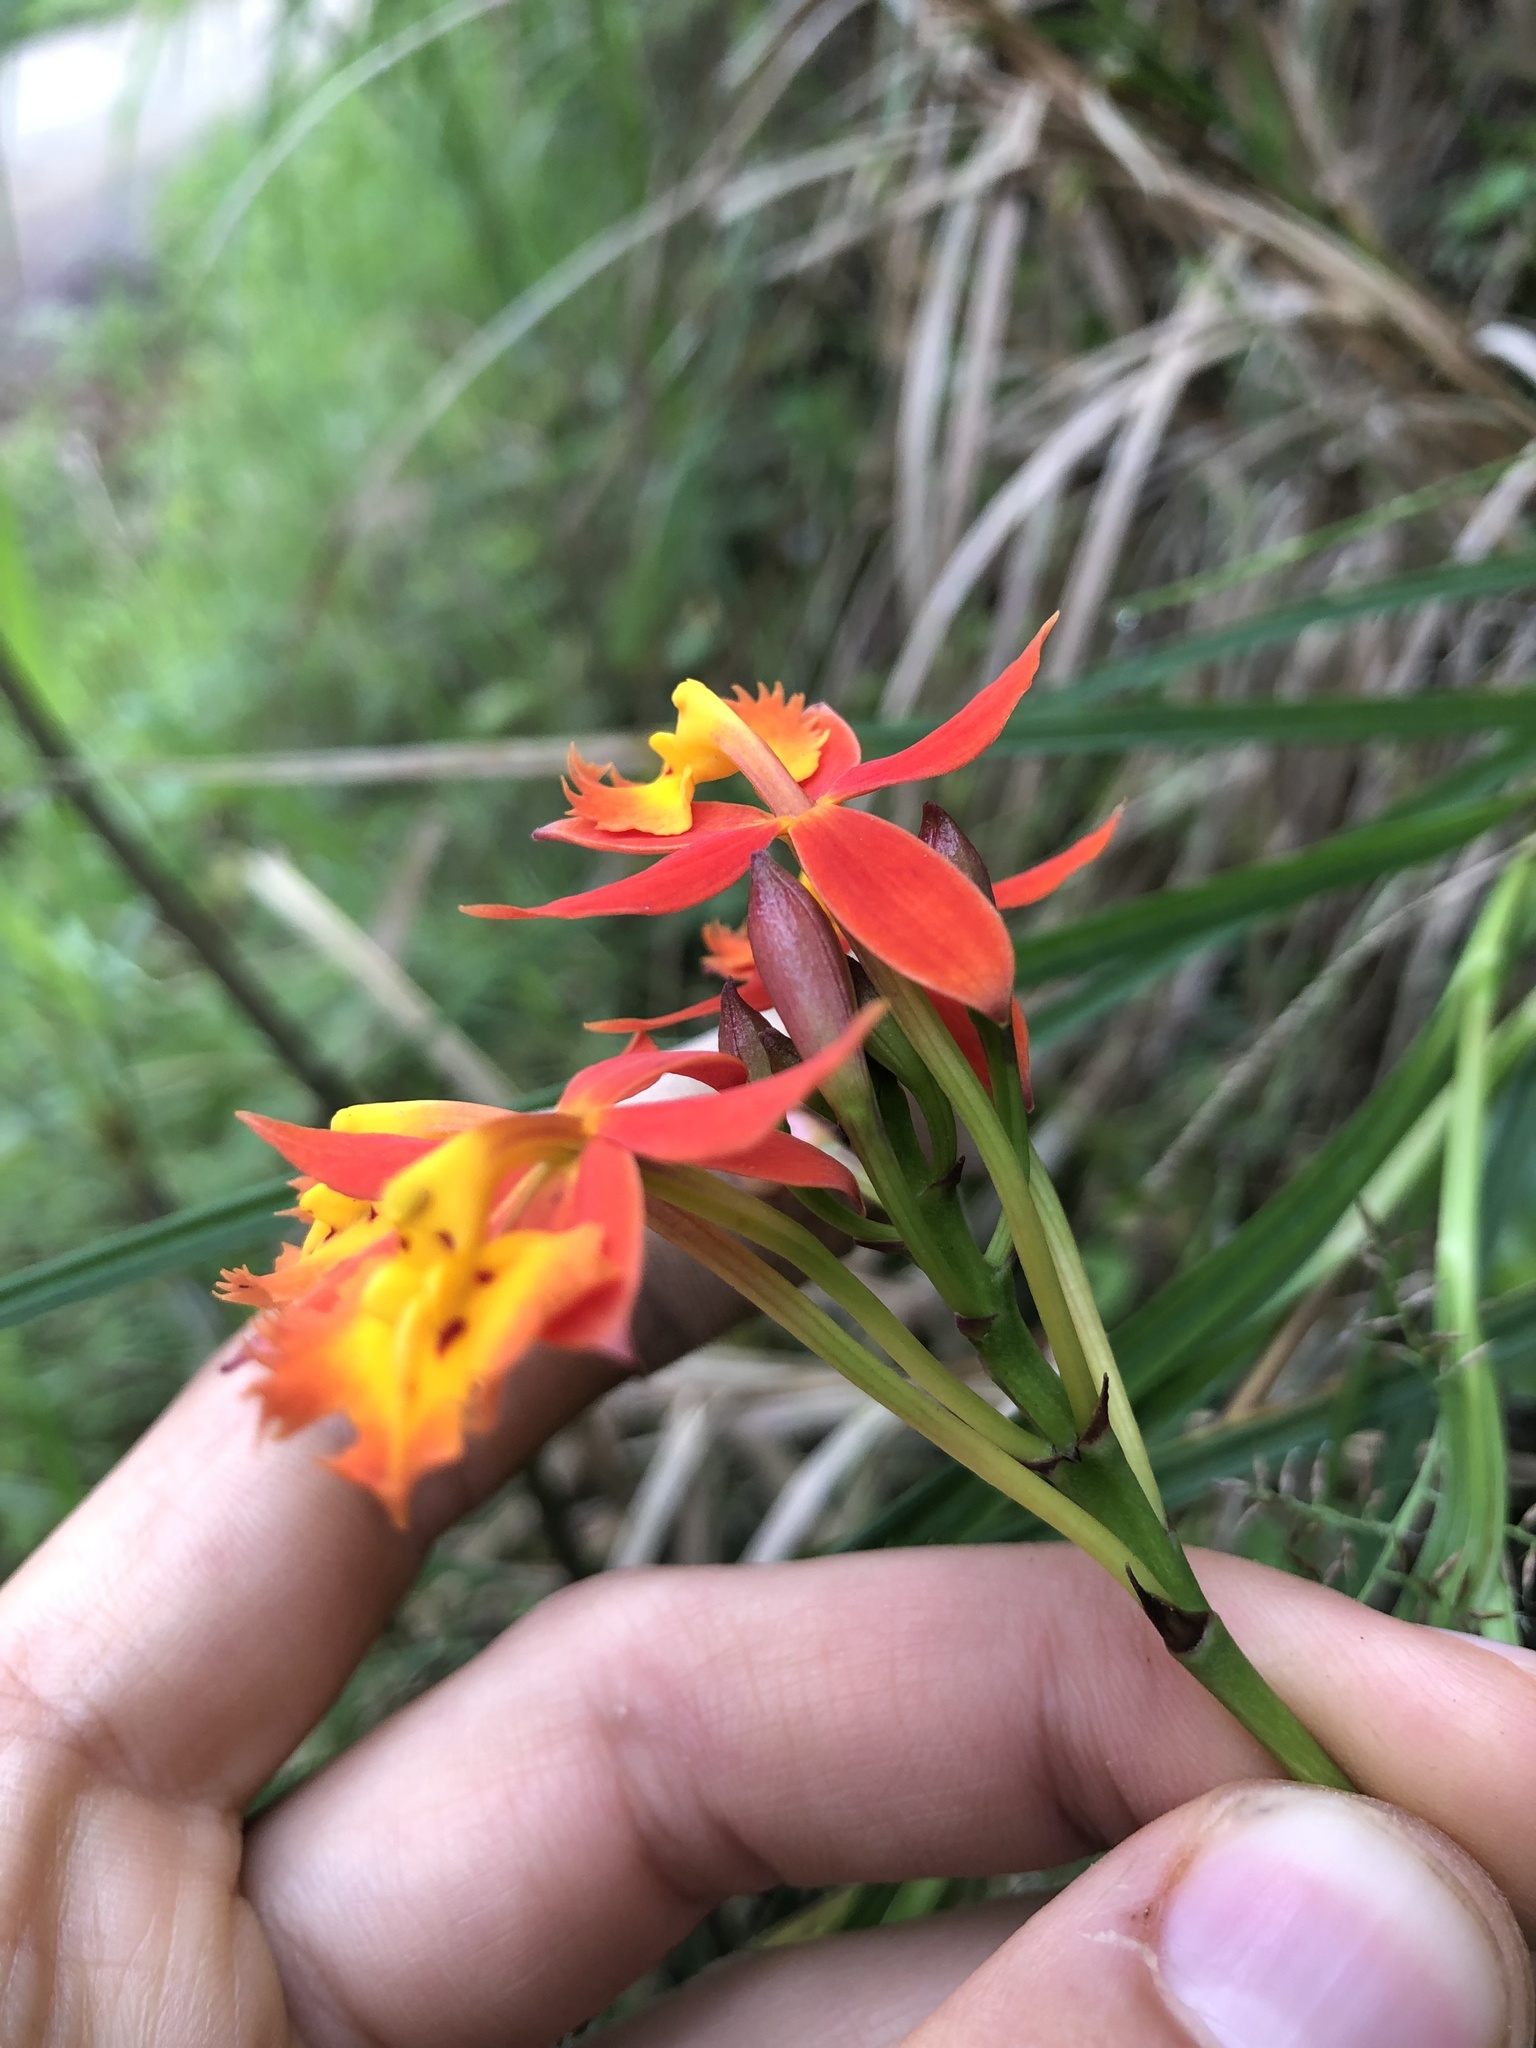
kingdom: Plantae
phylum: Tracheophyta
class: Liliopsida
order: Asparagales
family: Orchidaceae
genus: Epidendrum
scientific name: Epidendrum radicans
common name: Fire star orchid
